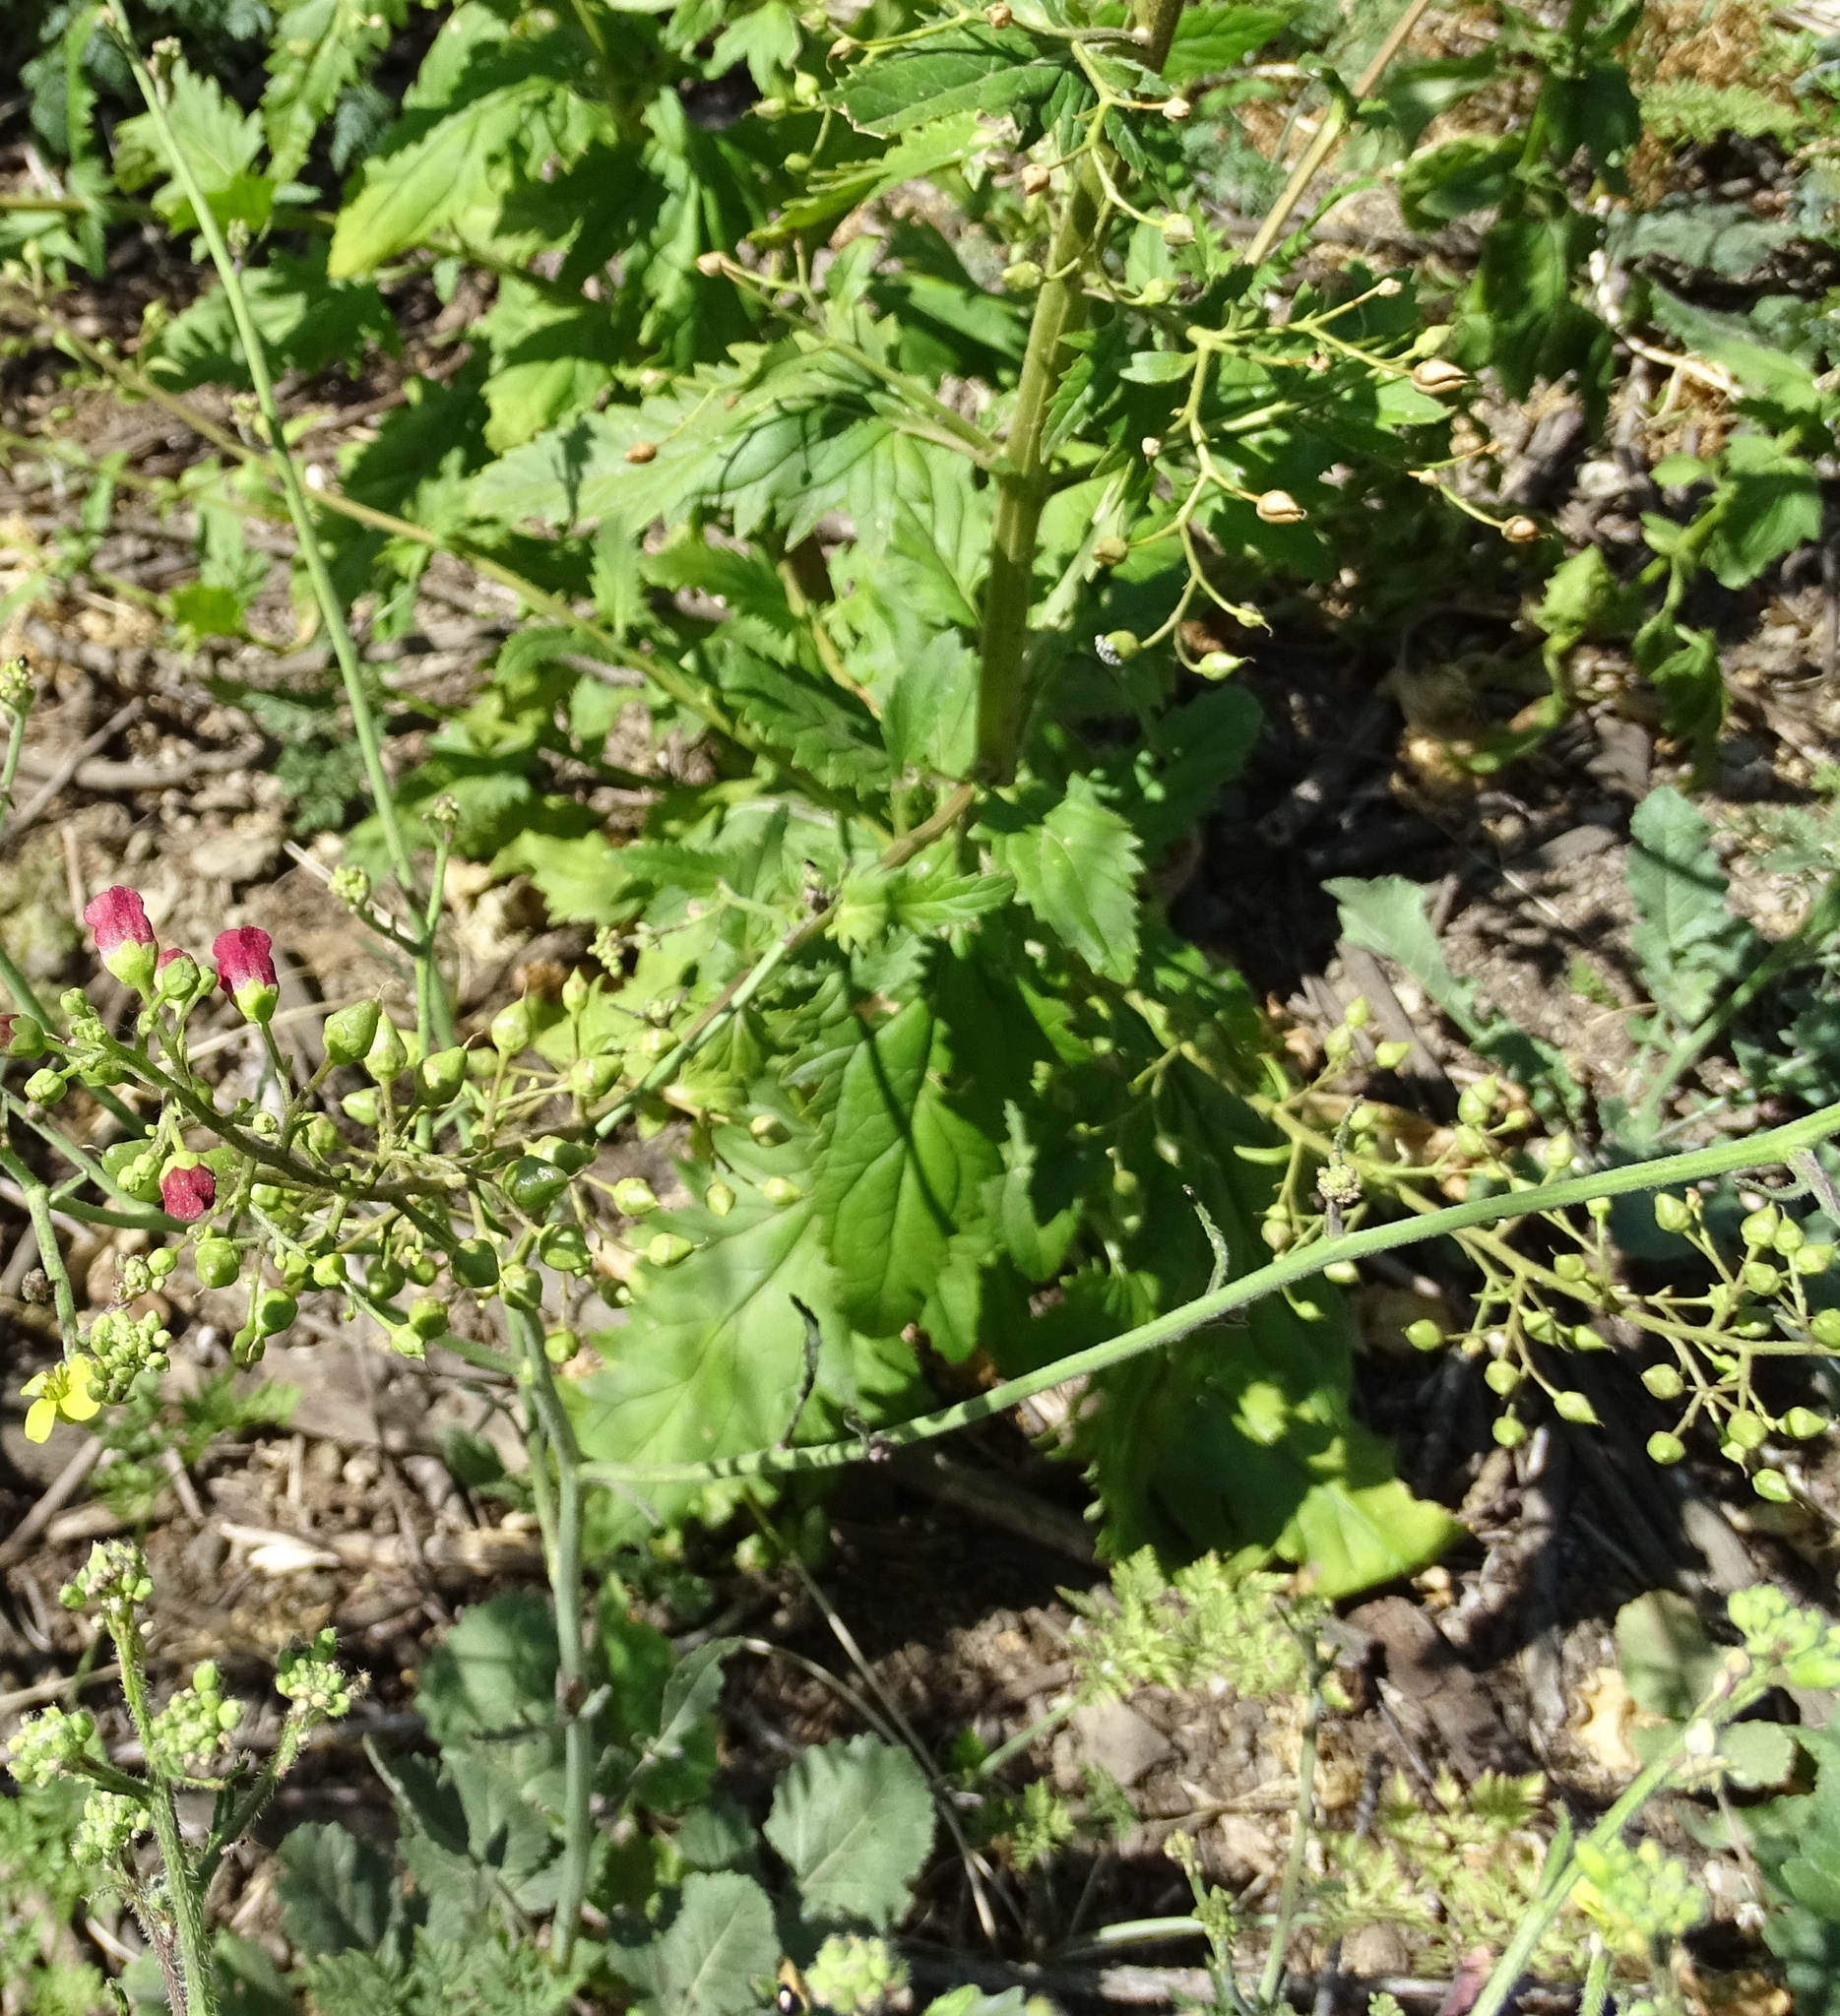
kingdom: Plantae
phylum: Tracheophyta
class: Magnoliopsida
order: Lamiales
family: Scrophulariaceae
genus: Scrophularia
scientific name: Scrophularia californica
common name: California figwort
